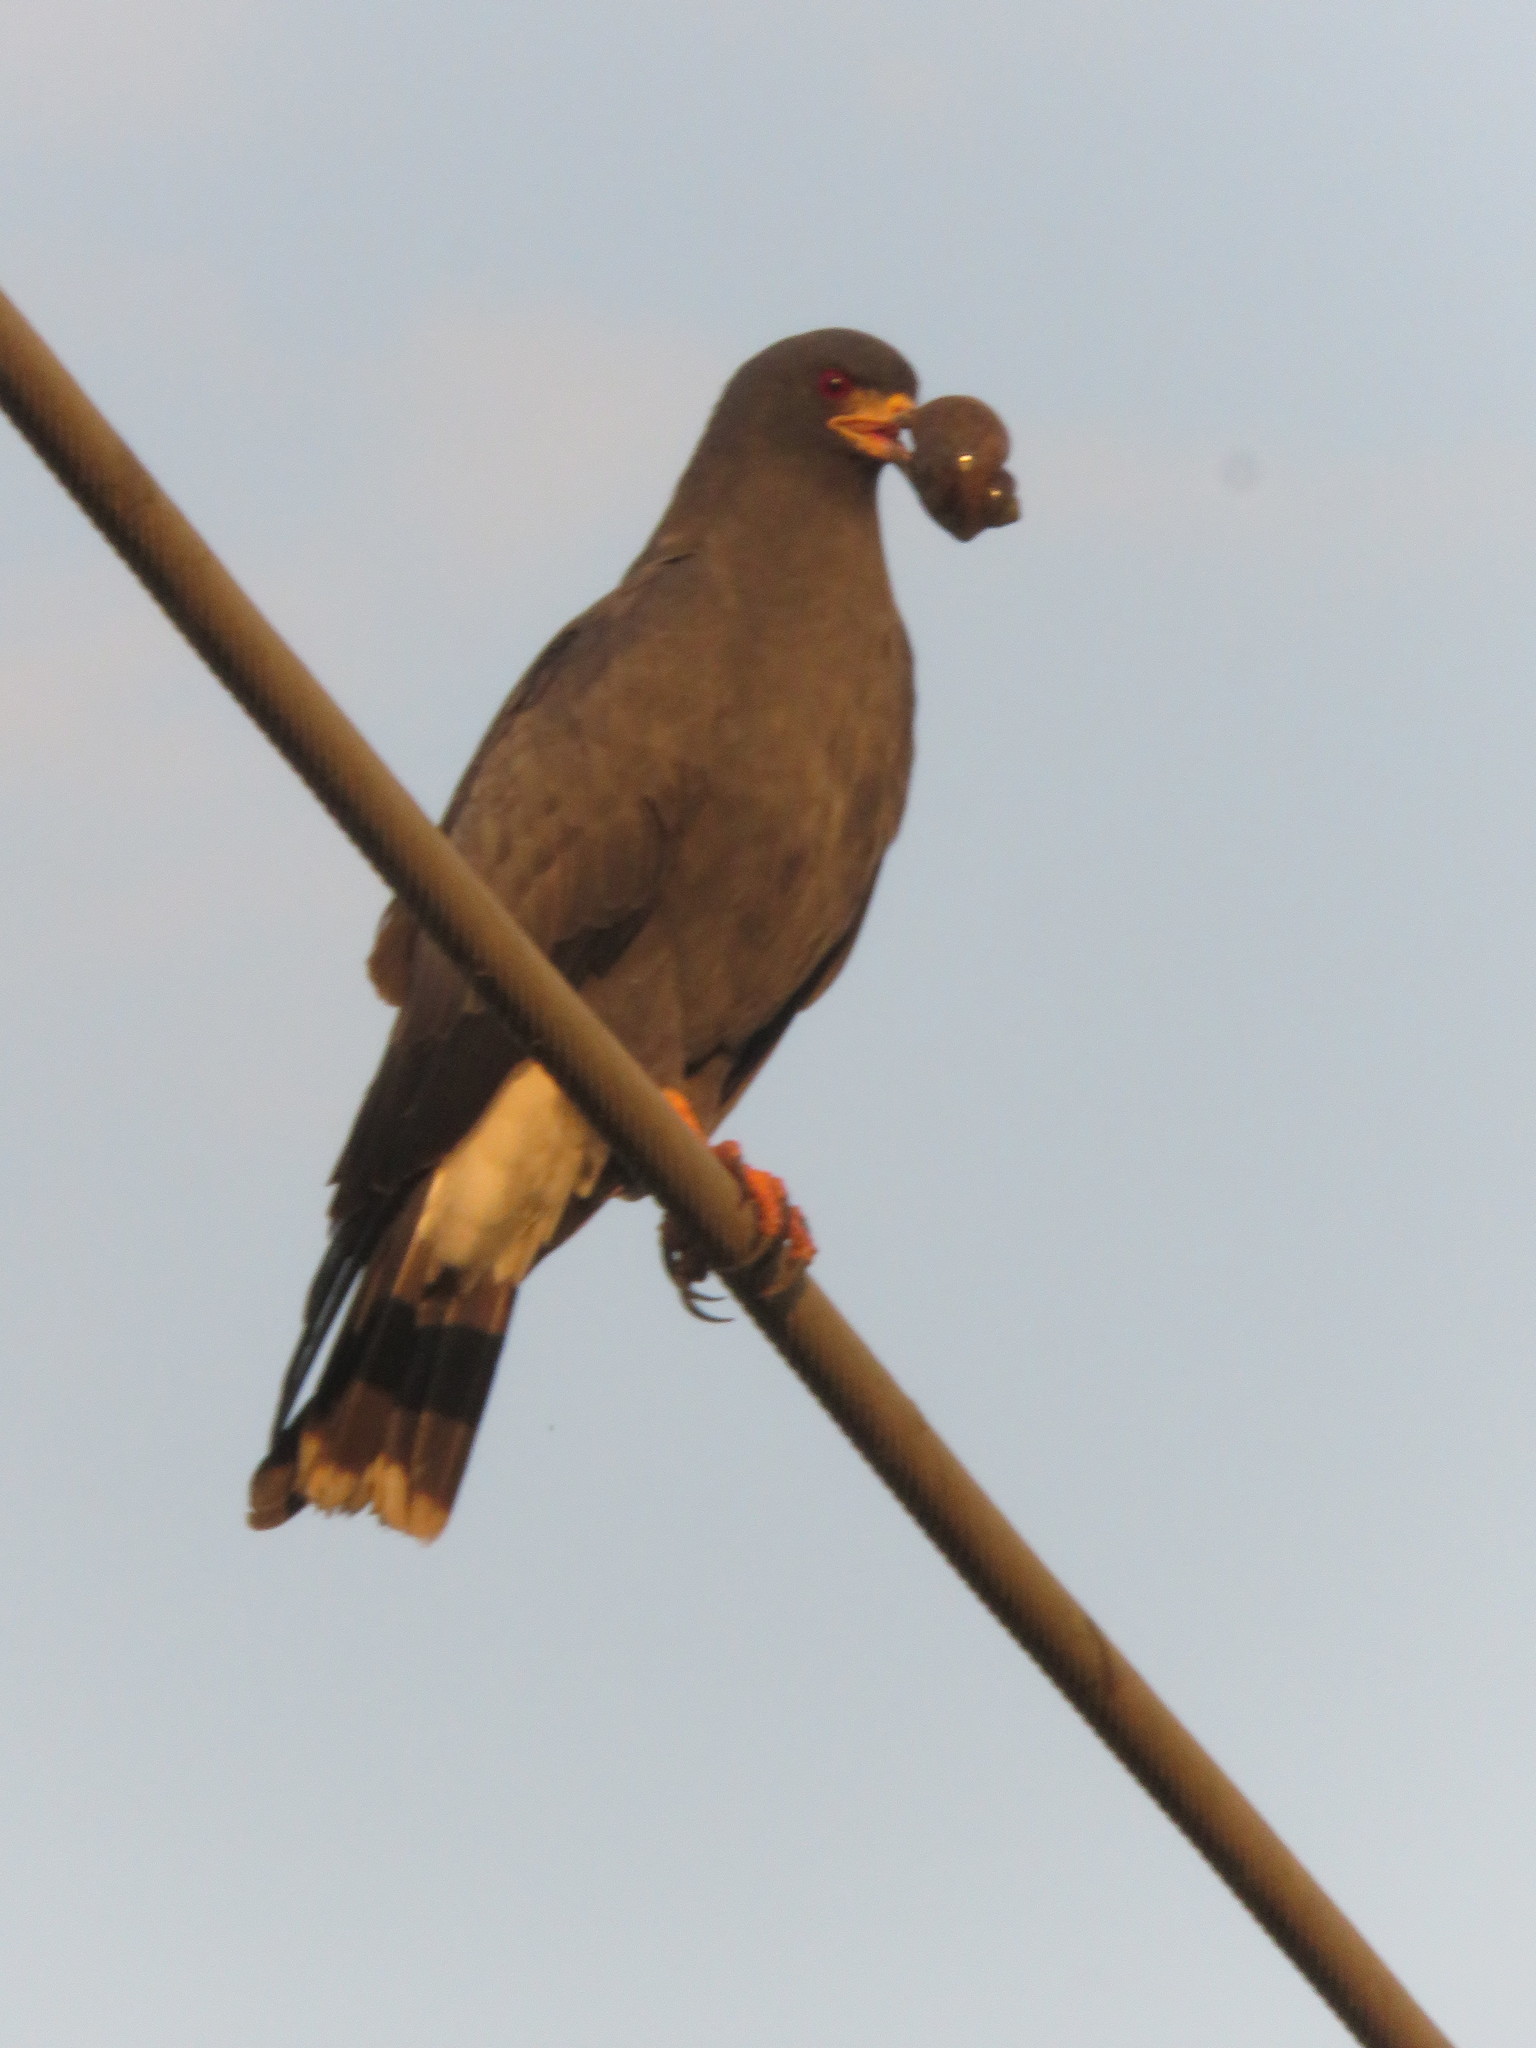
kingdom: Animalia
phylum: Chordata
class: Aves
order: Accipitriformes
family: Accipitridae
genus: Rostrhamus
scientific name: Rostrhamus sociabilis
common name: Snail kite
